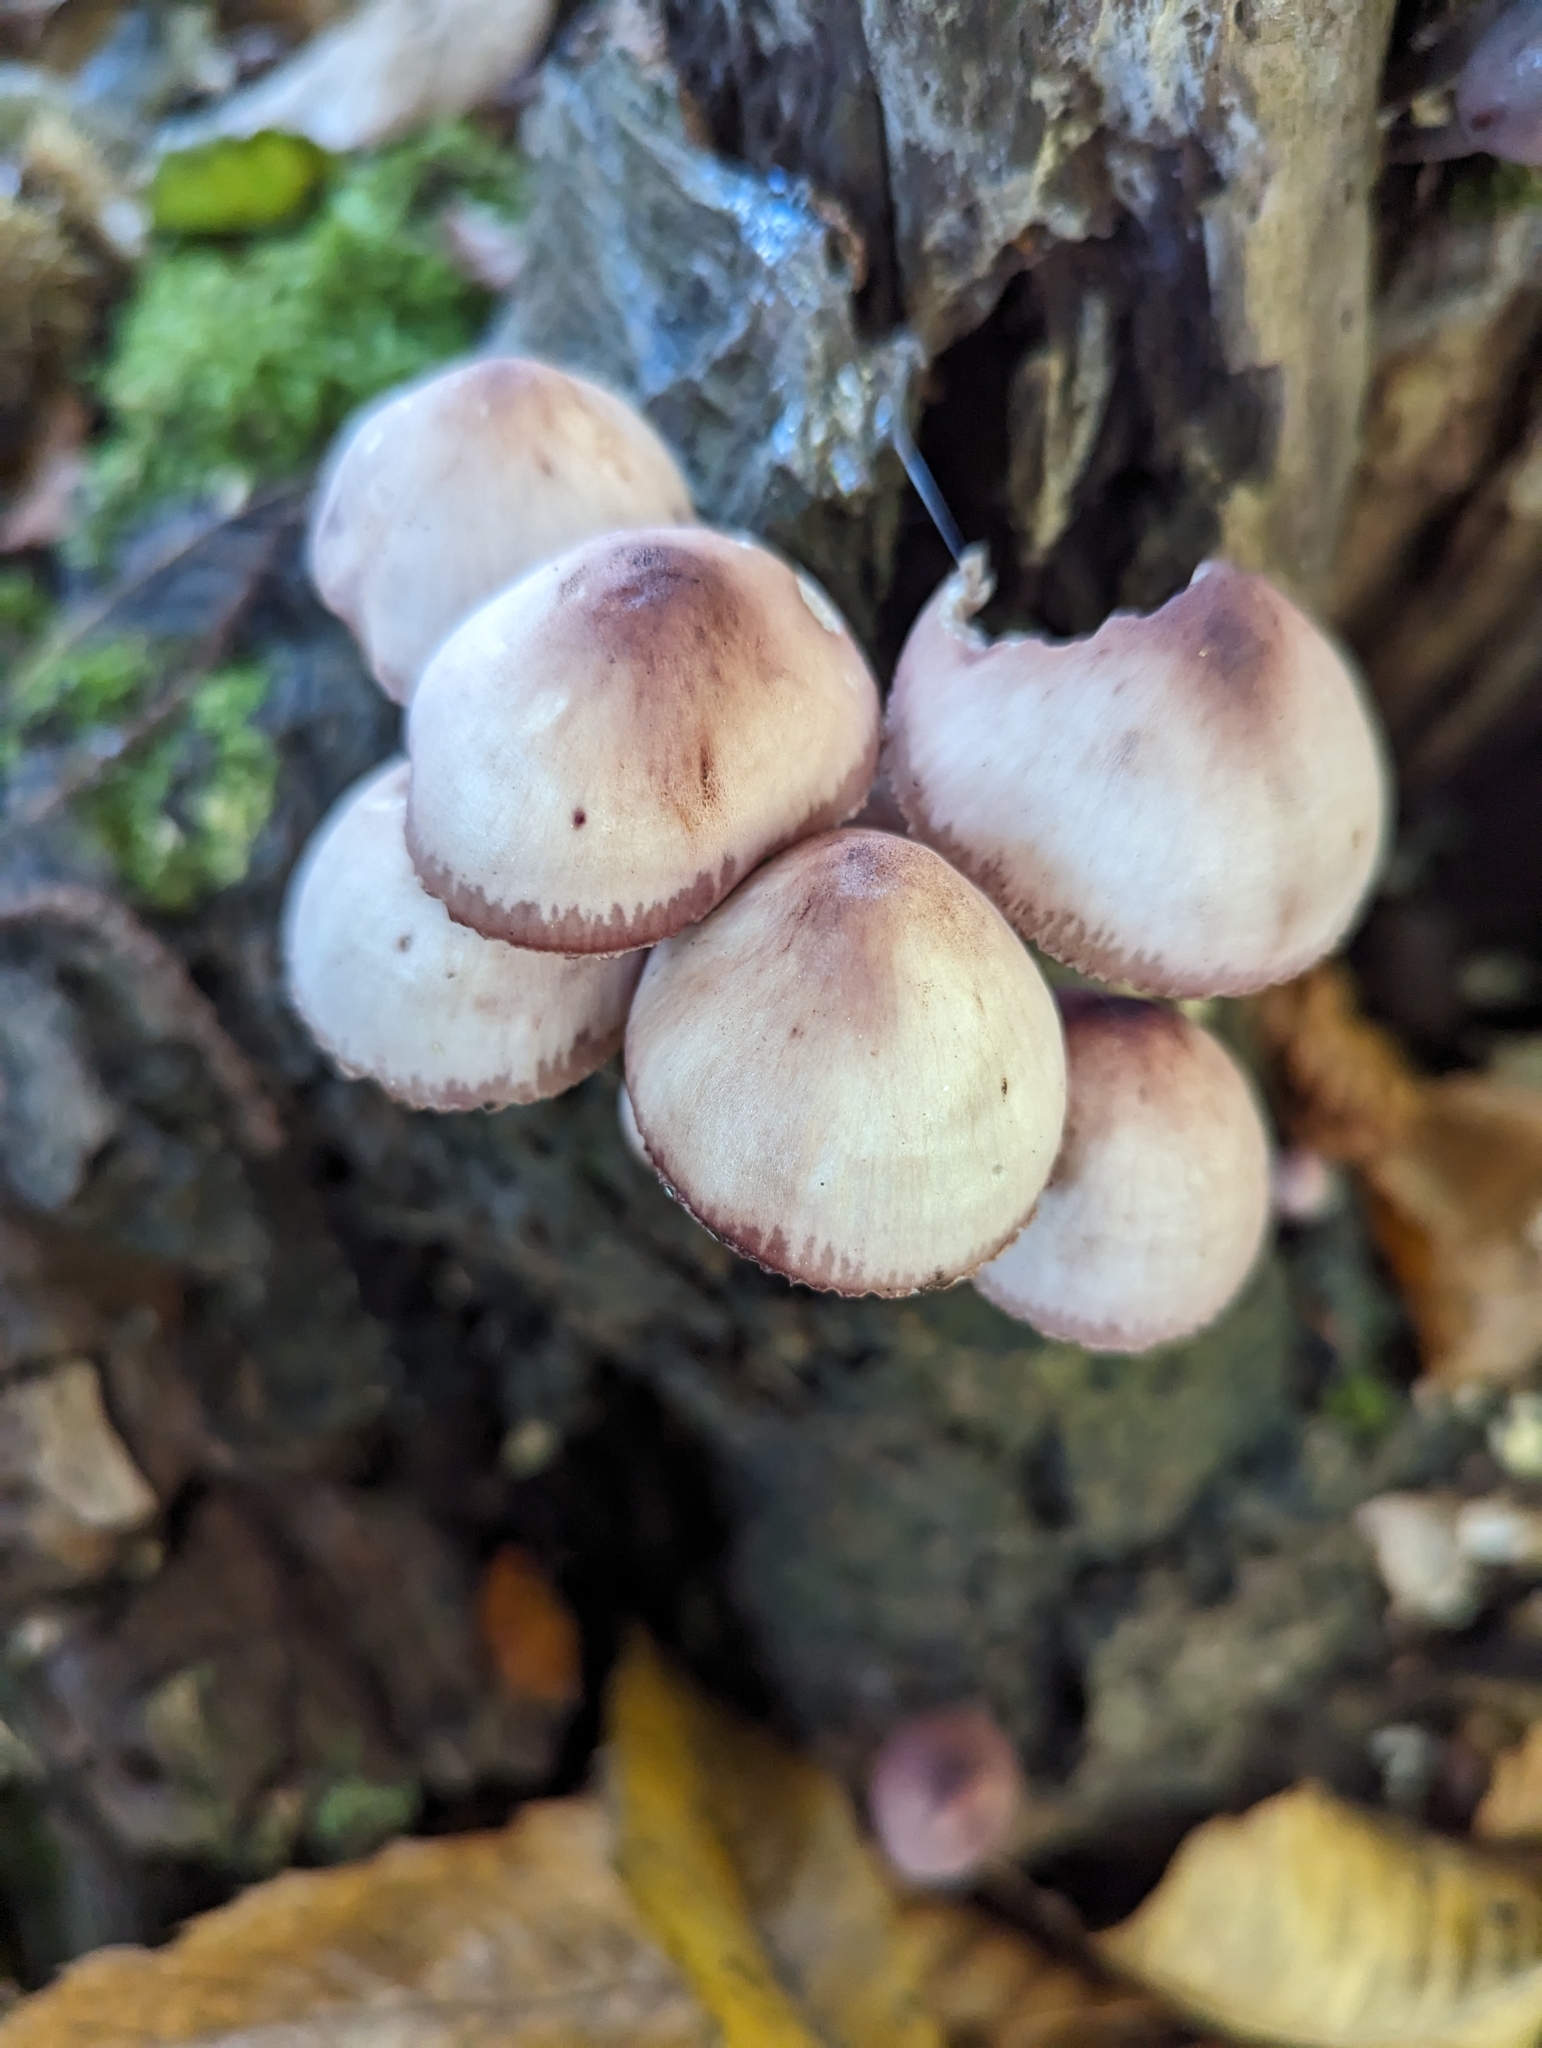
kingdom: Fungi
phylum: Basidiomycota
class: Agaricomycetes
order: Agaricales
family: Mycenaceae
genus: Mycena
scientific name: Mycena haematopus
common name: Burgundydrop bonnet
